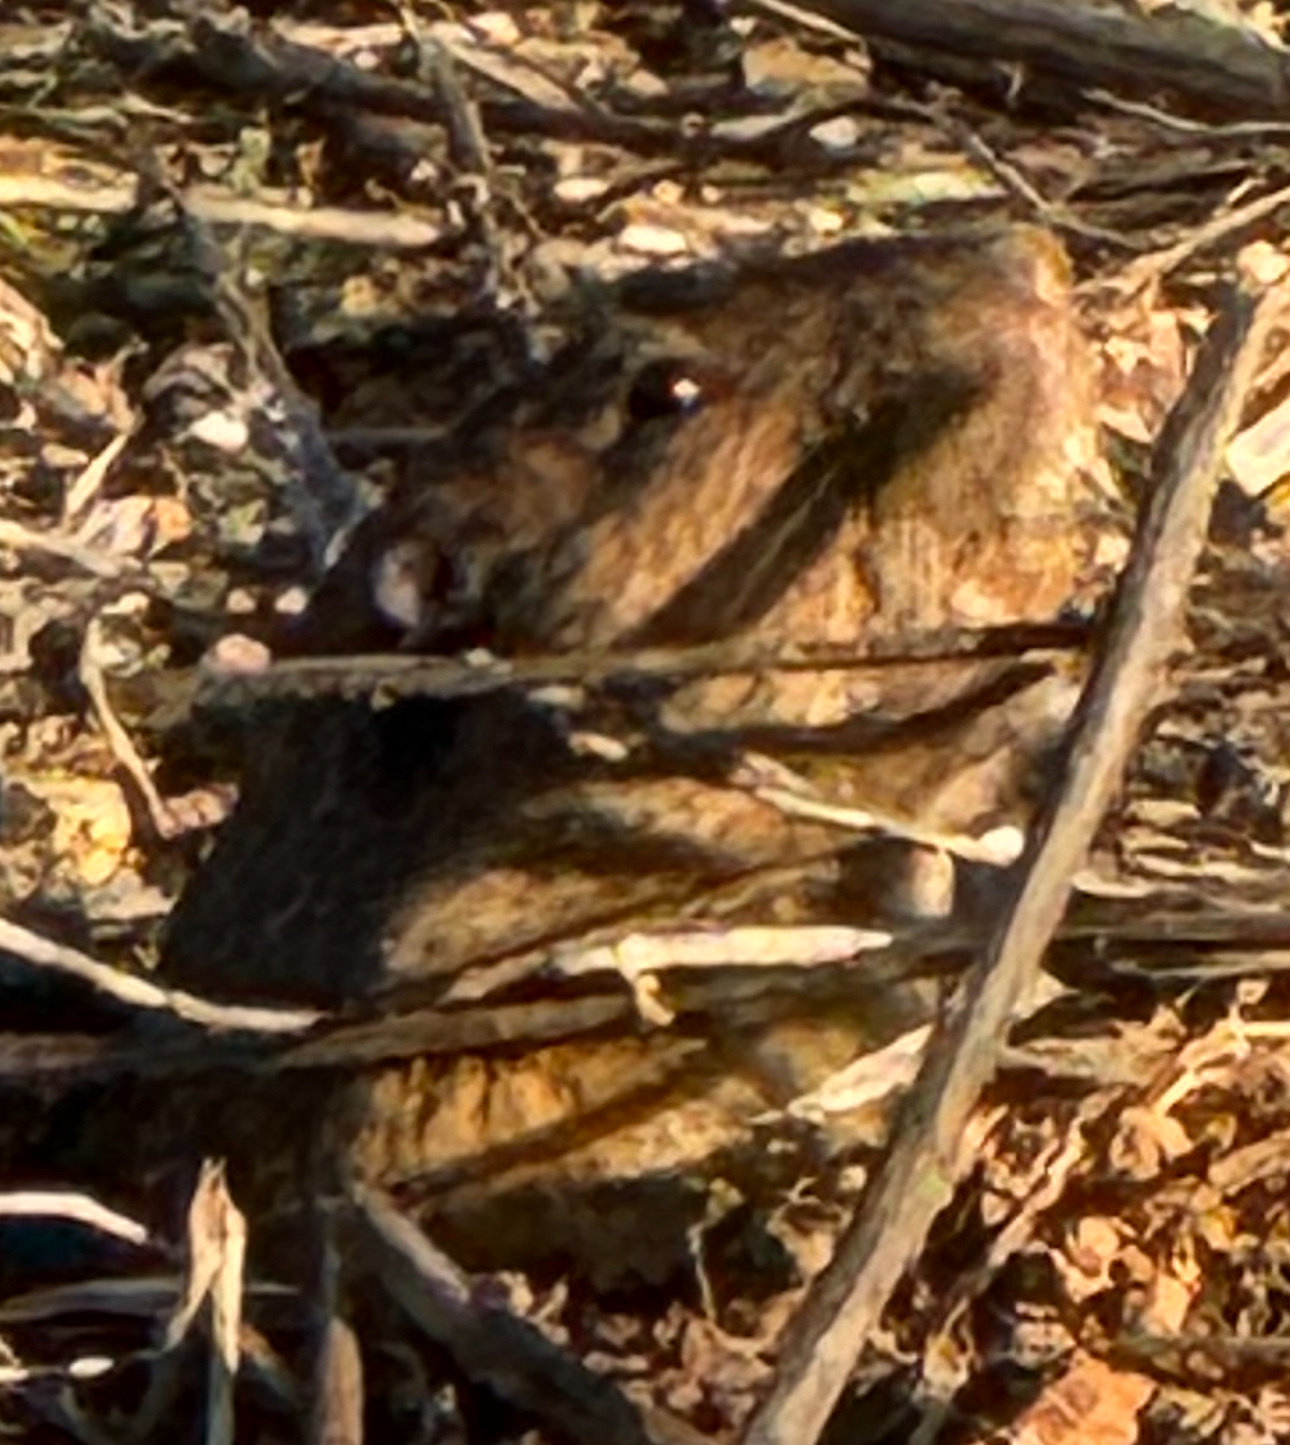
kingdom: Animalia
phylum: Chordata
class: Mammalia
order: Rodentia
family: Geomyidae
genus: Thomomys
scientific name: Thomomys bottae
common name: Botta's pocket gopher
